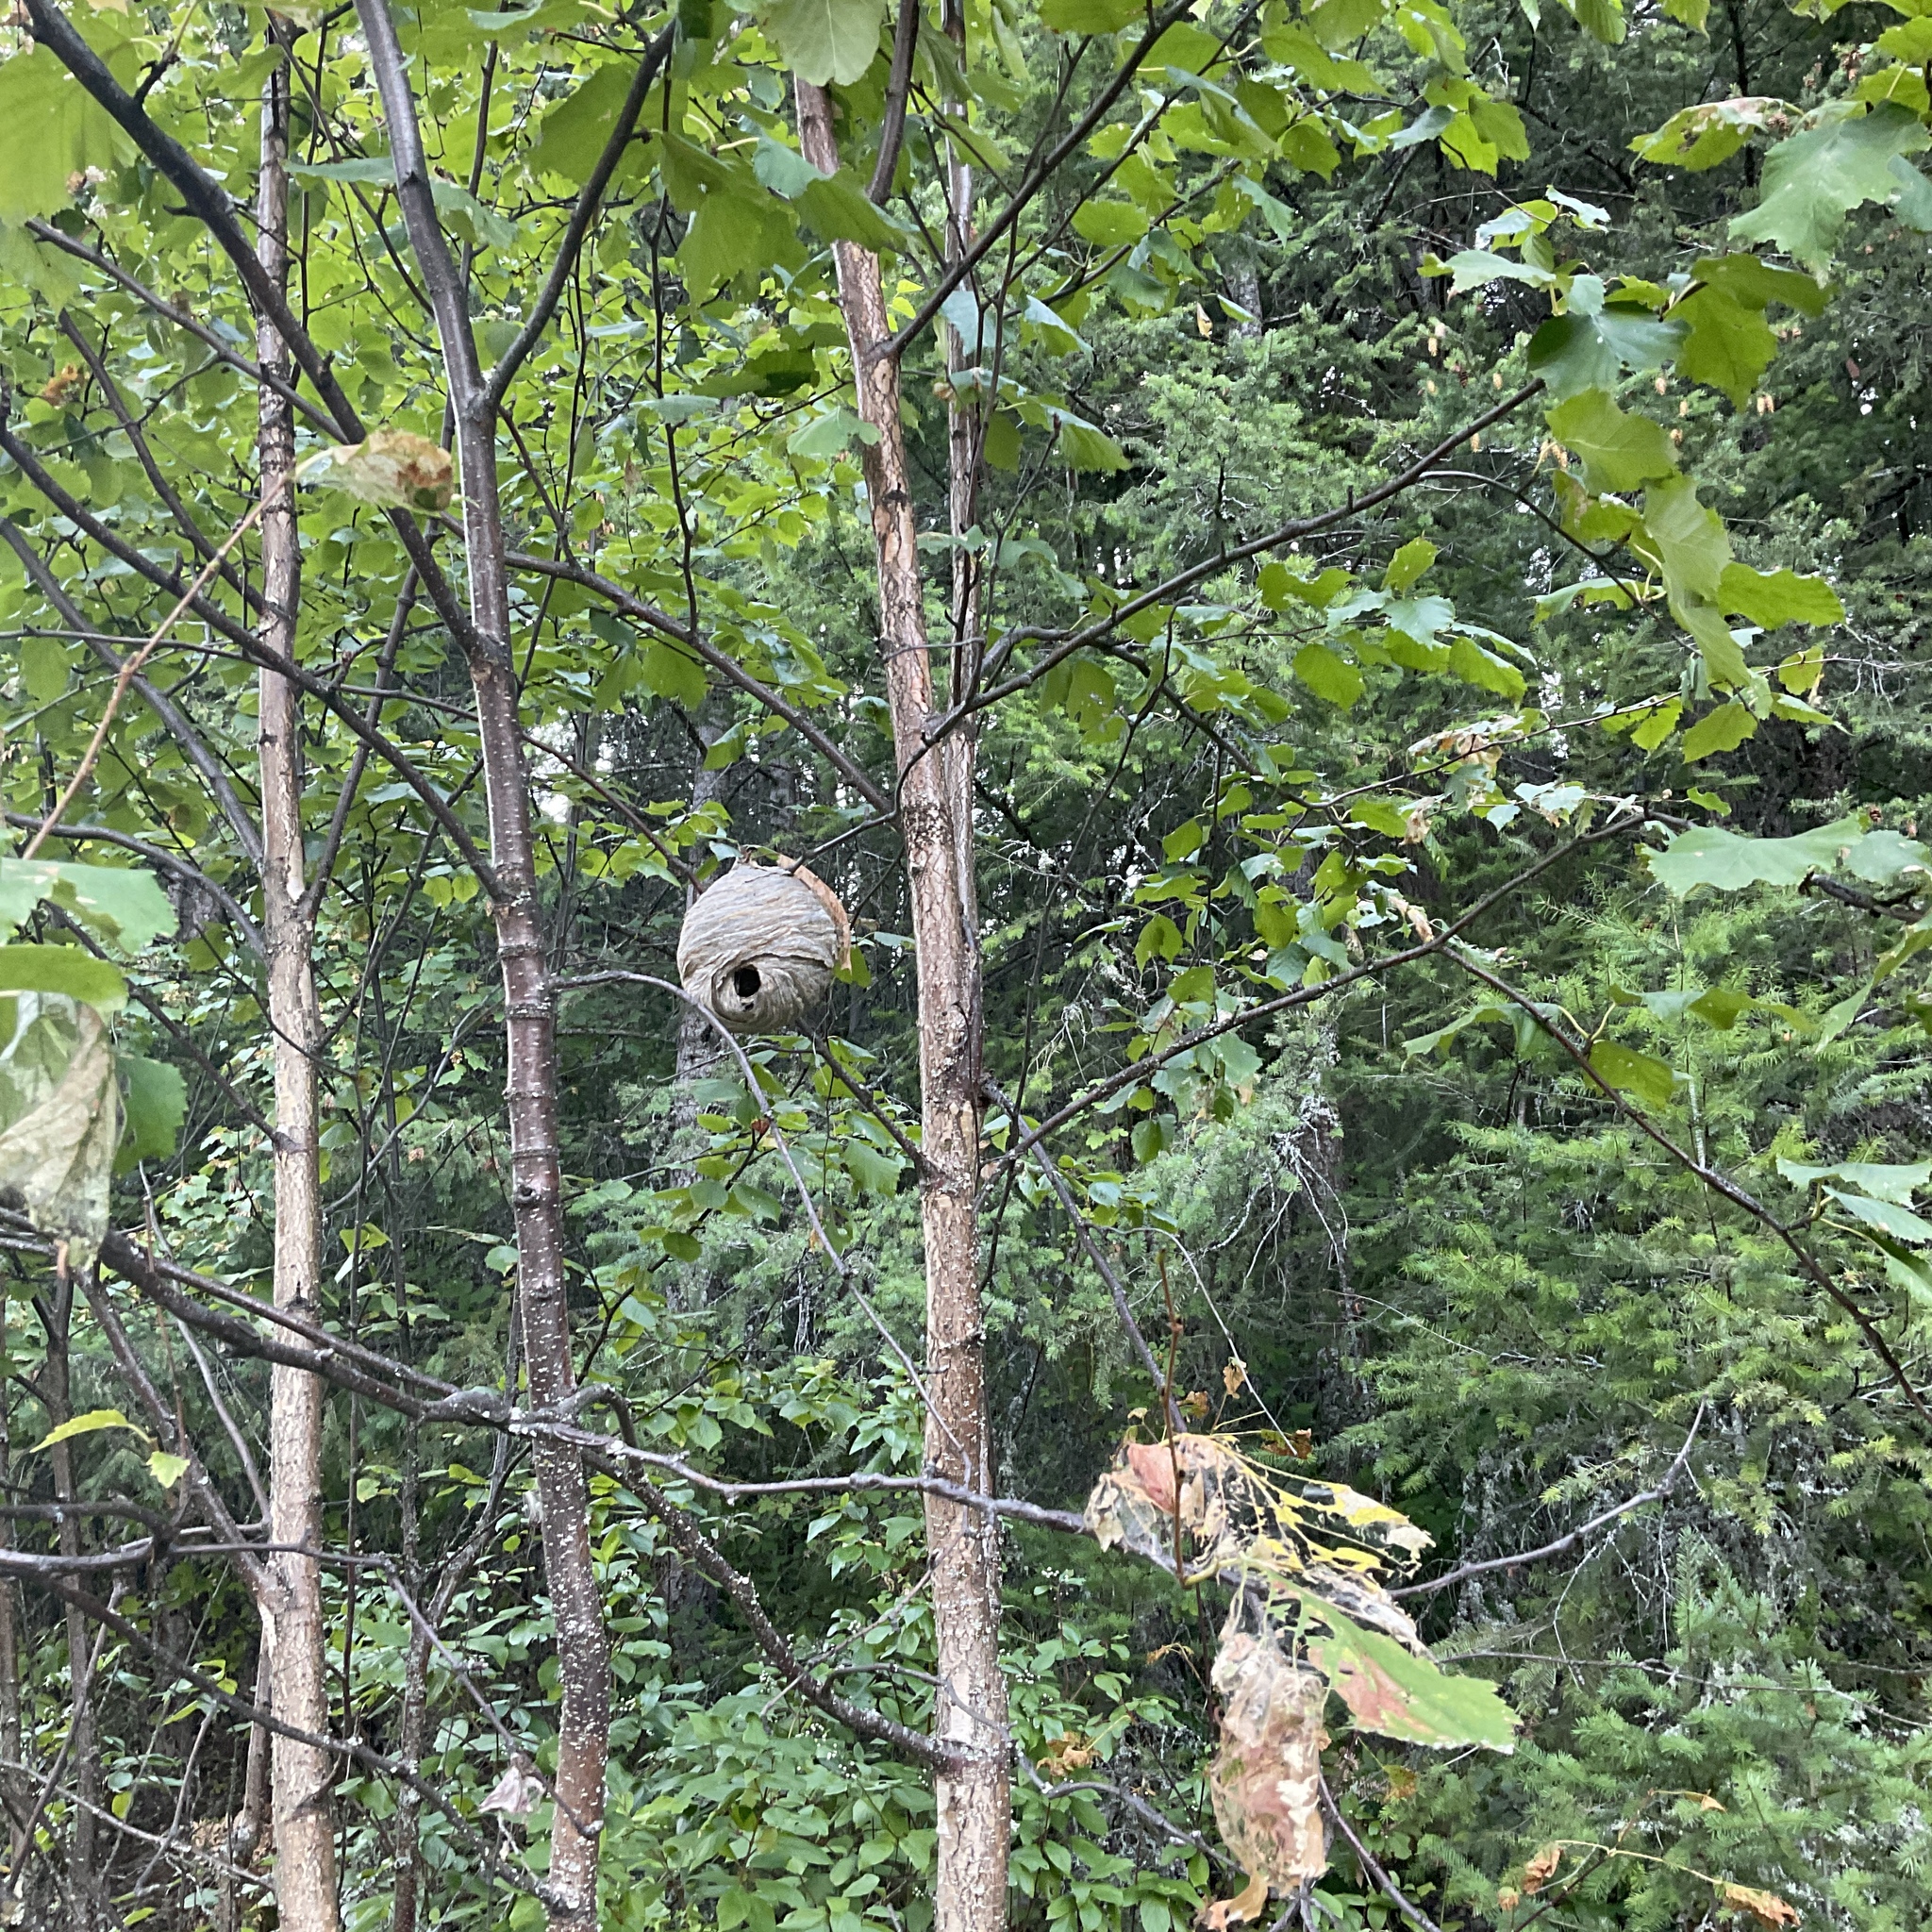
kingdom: Animalia
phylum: Arthropoda
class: Insecta
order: Hymenoptera
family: Vespidae
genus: Dolichovespula
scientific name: Dolichovespula maculata
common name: Bald-faced hornet
